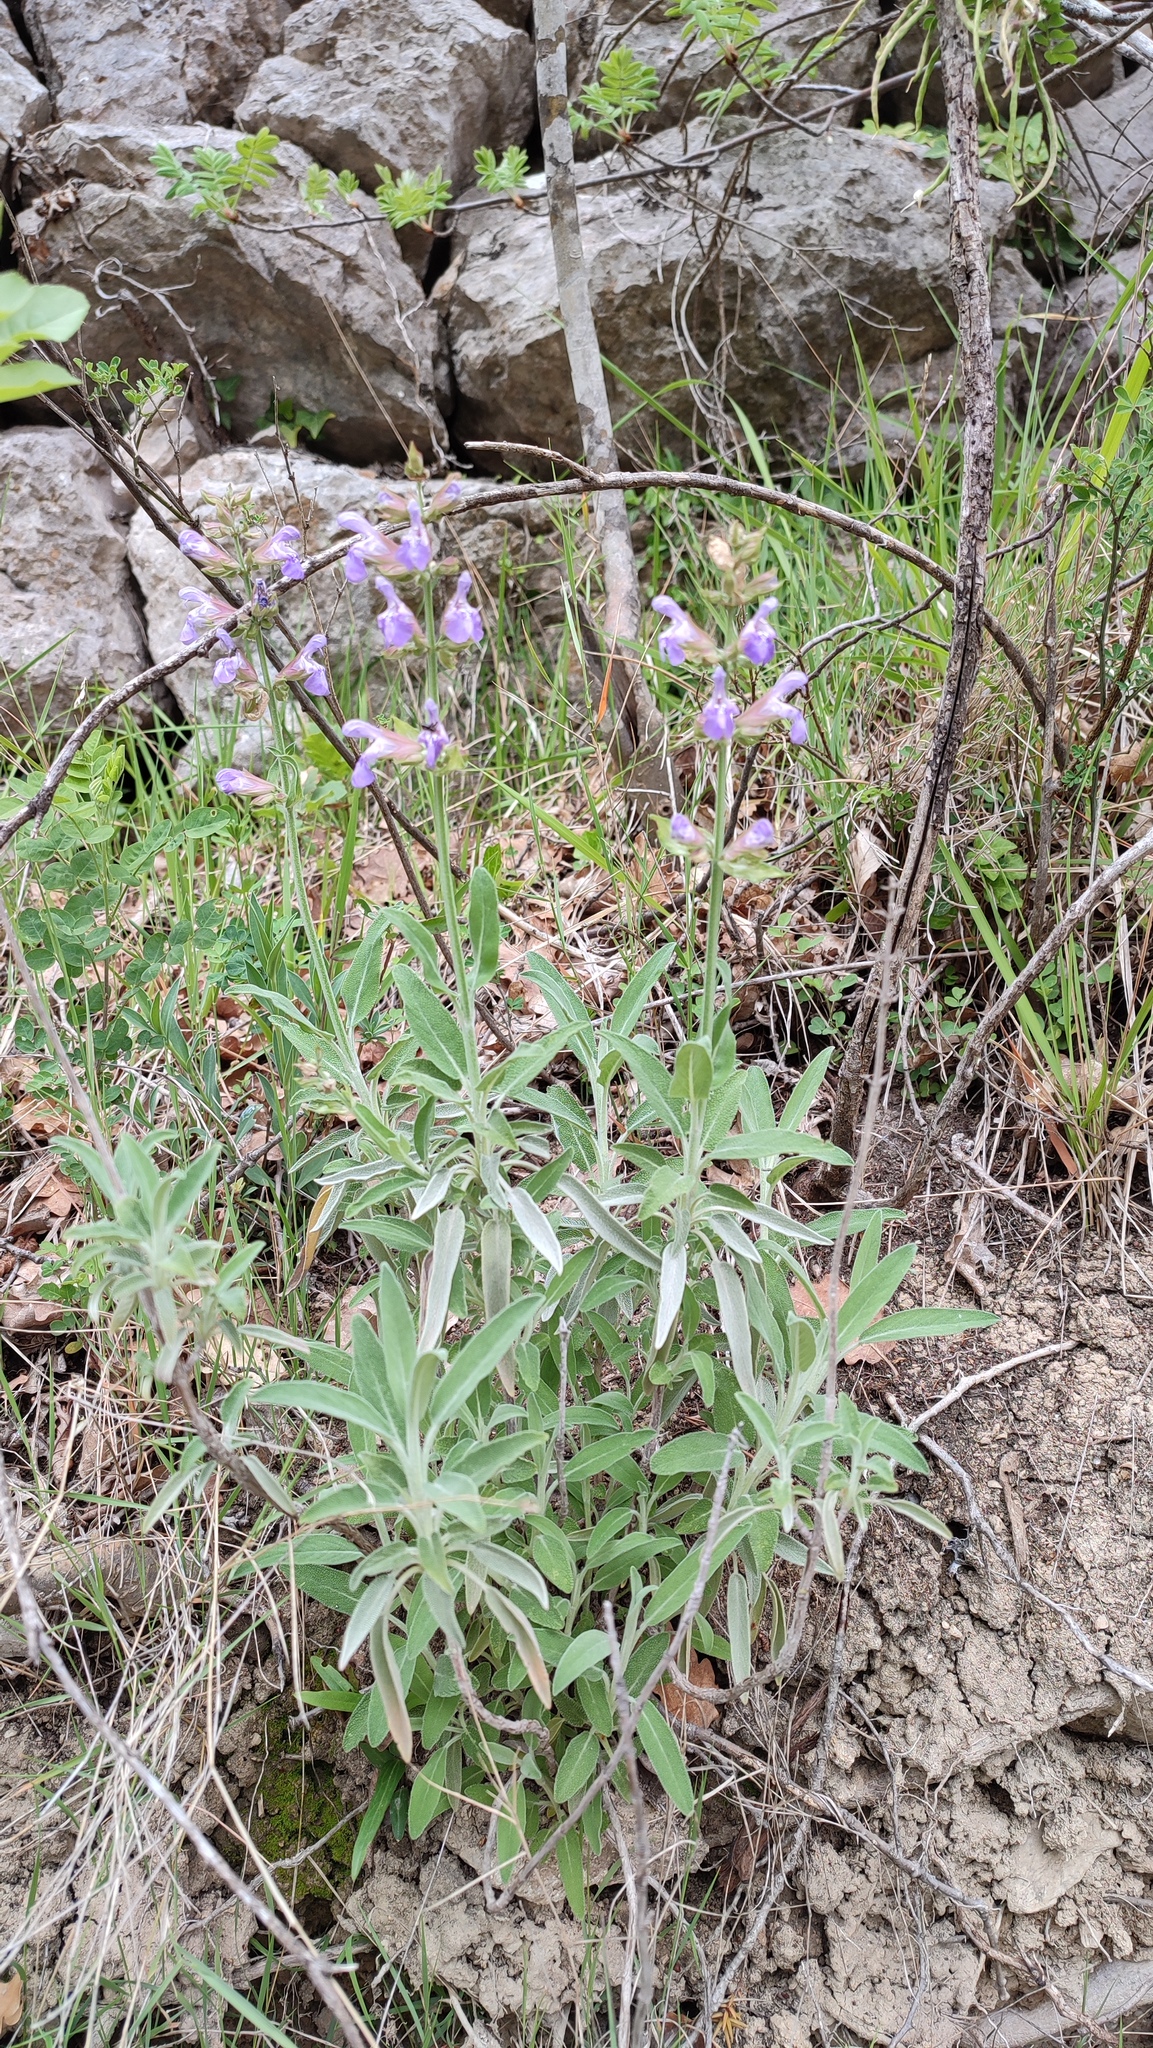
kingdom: Plantae
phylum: Tracheophyta
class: Magnoliopsida
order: Lamiales
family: Lamiaceae
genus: Salvia
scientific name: Salvia officinalis
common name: Sage
